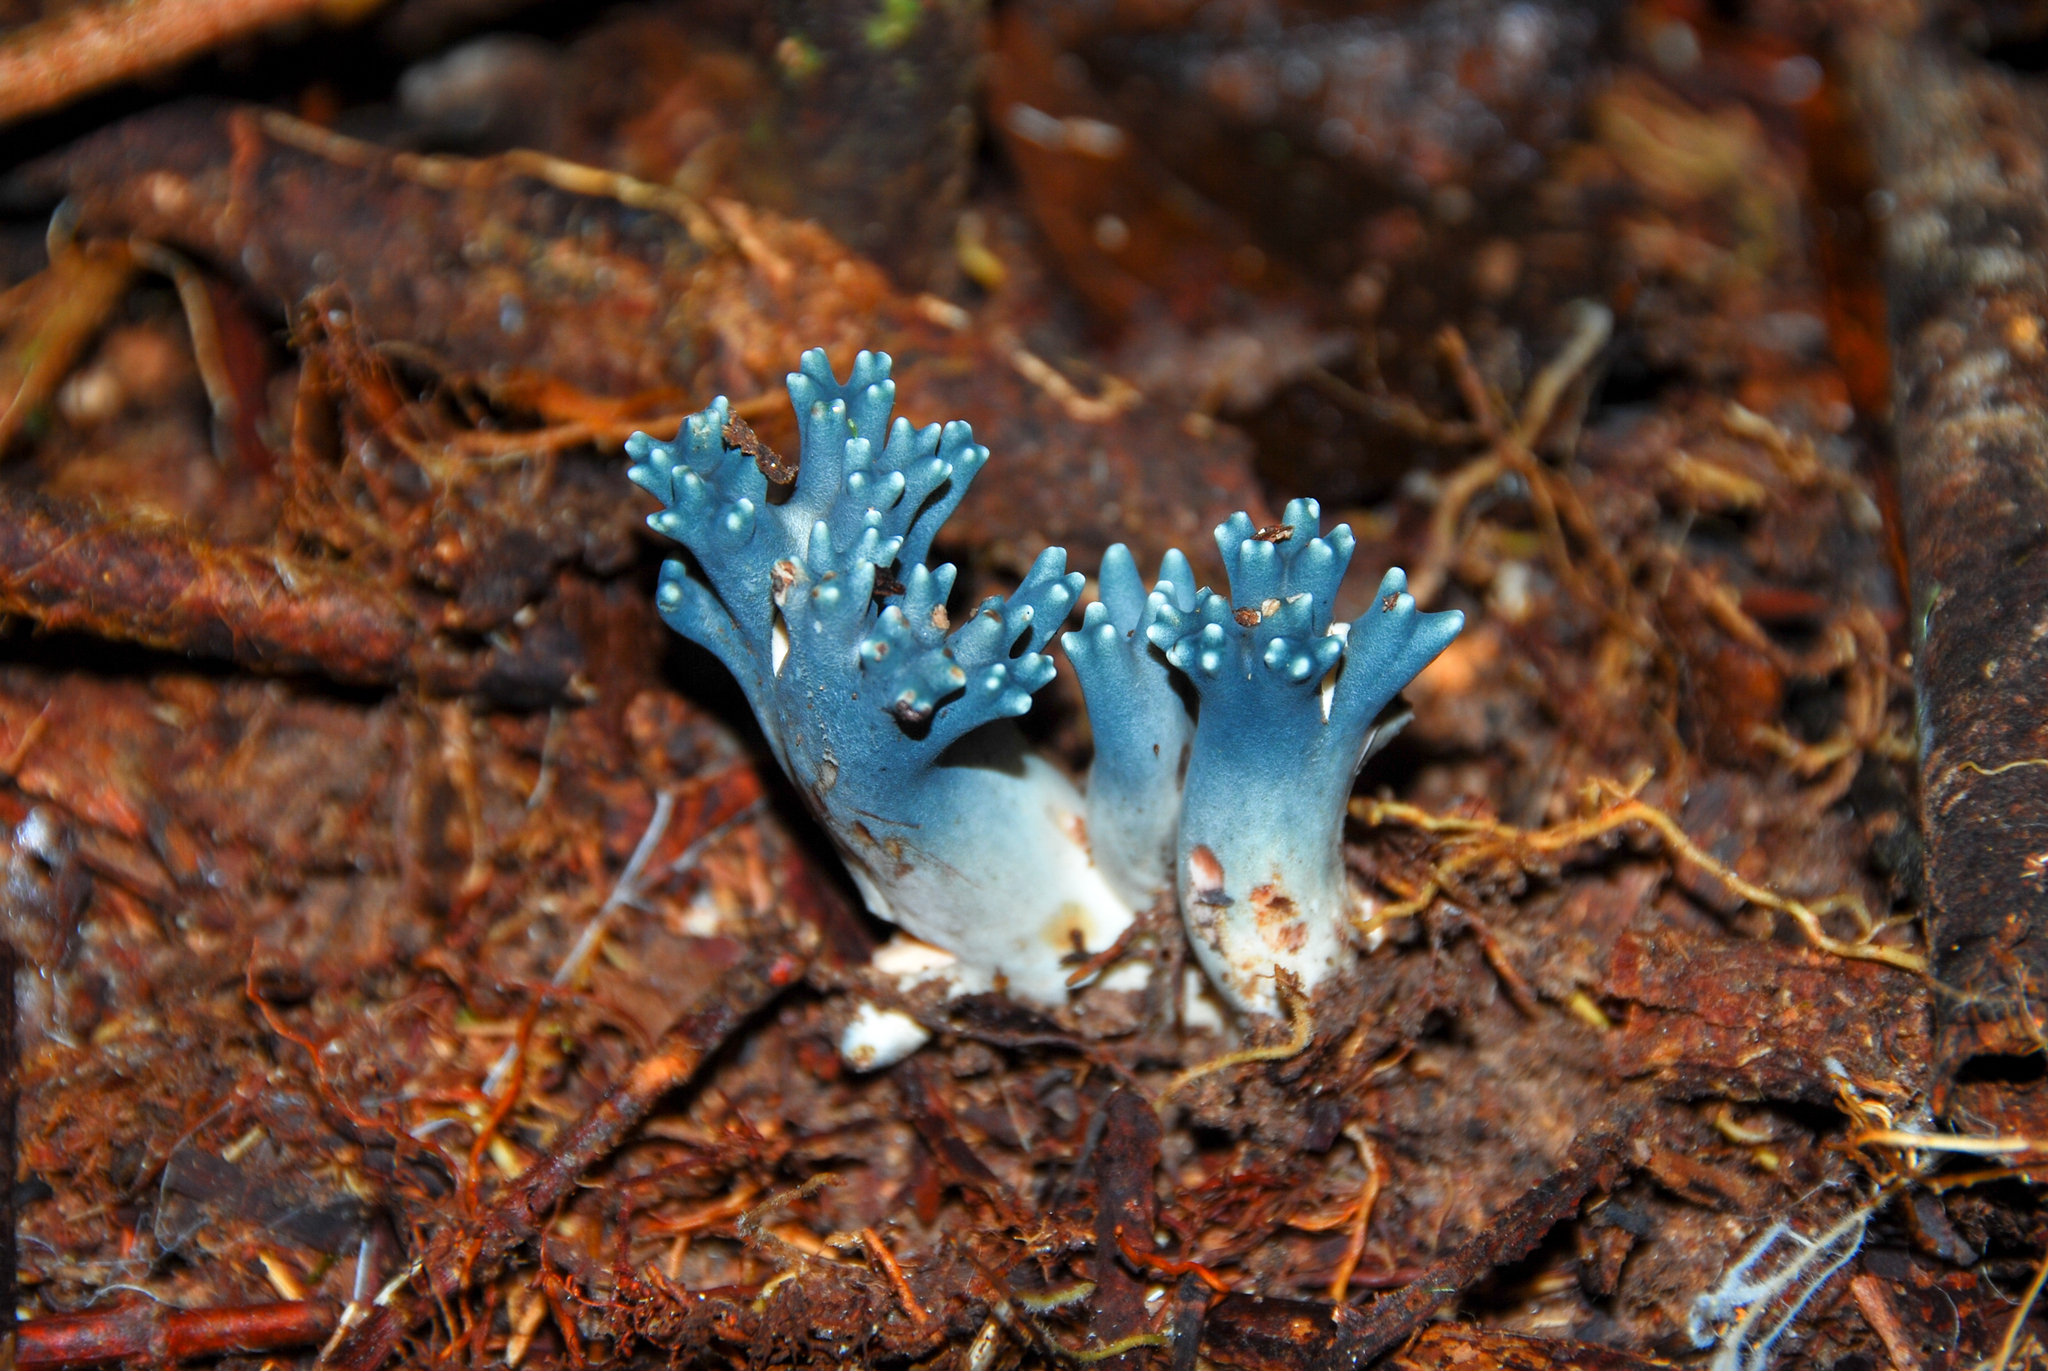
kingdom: Fungi
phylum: Basidiomycota
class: Agaricomycetes
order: Gomphales
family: Gomphaceae
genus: Phaeoclavulina
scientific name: Phaeoclavulina cyanocephala
